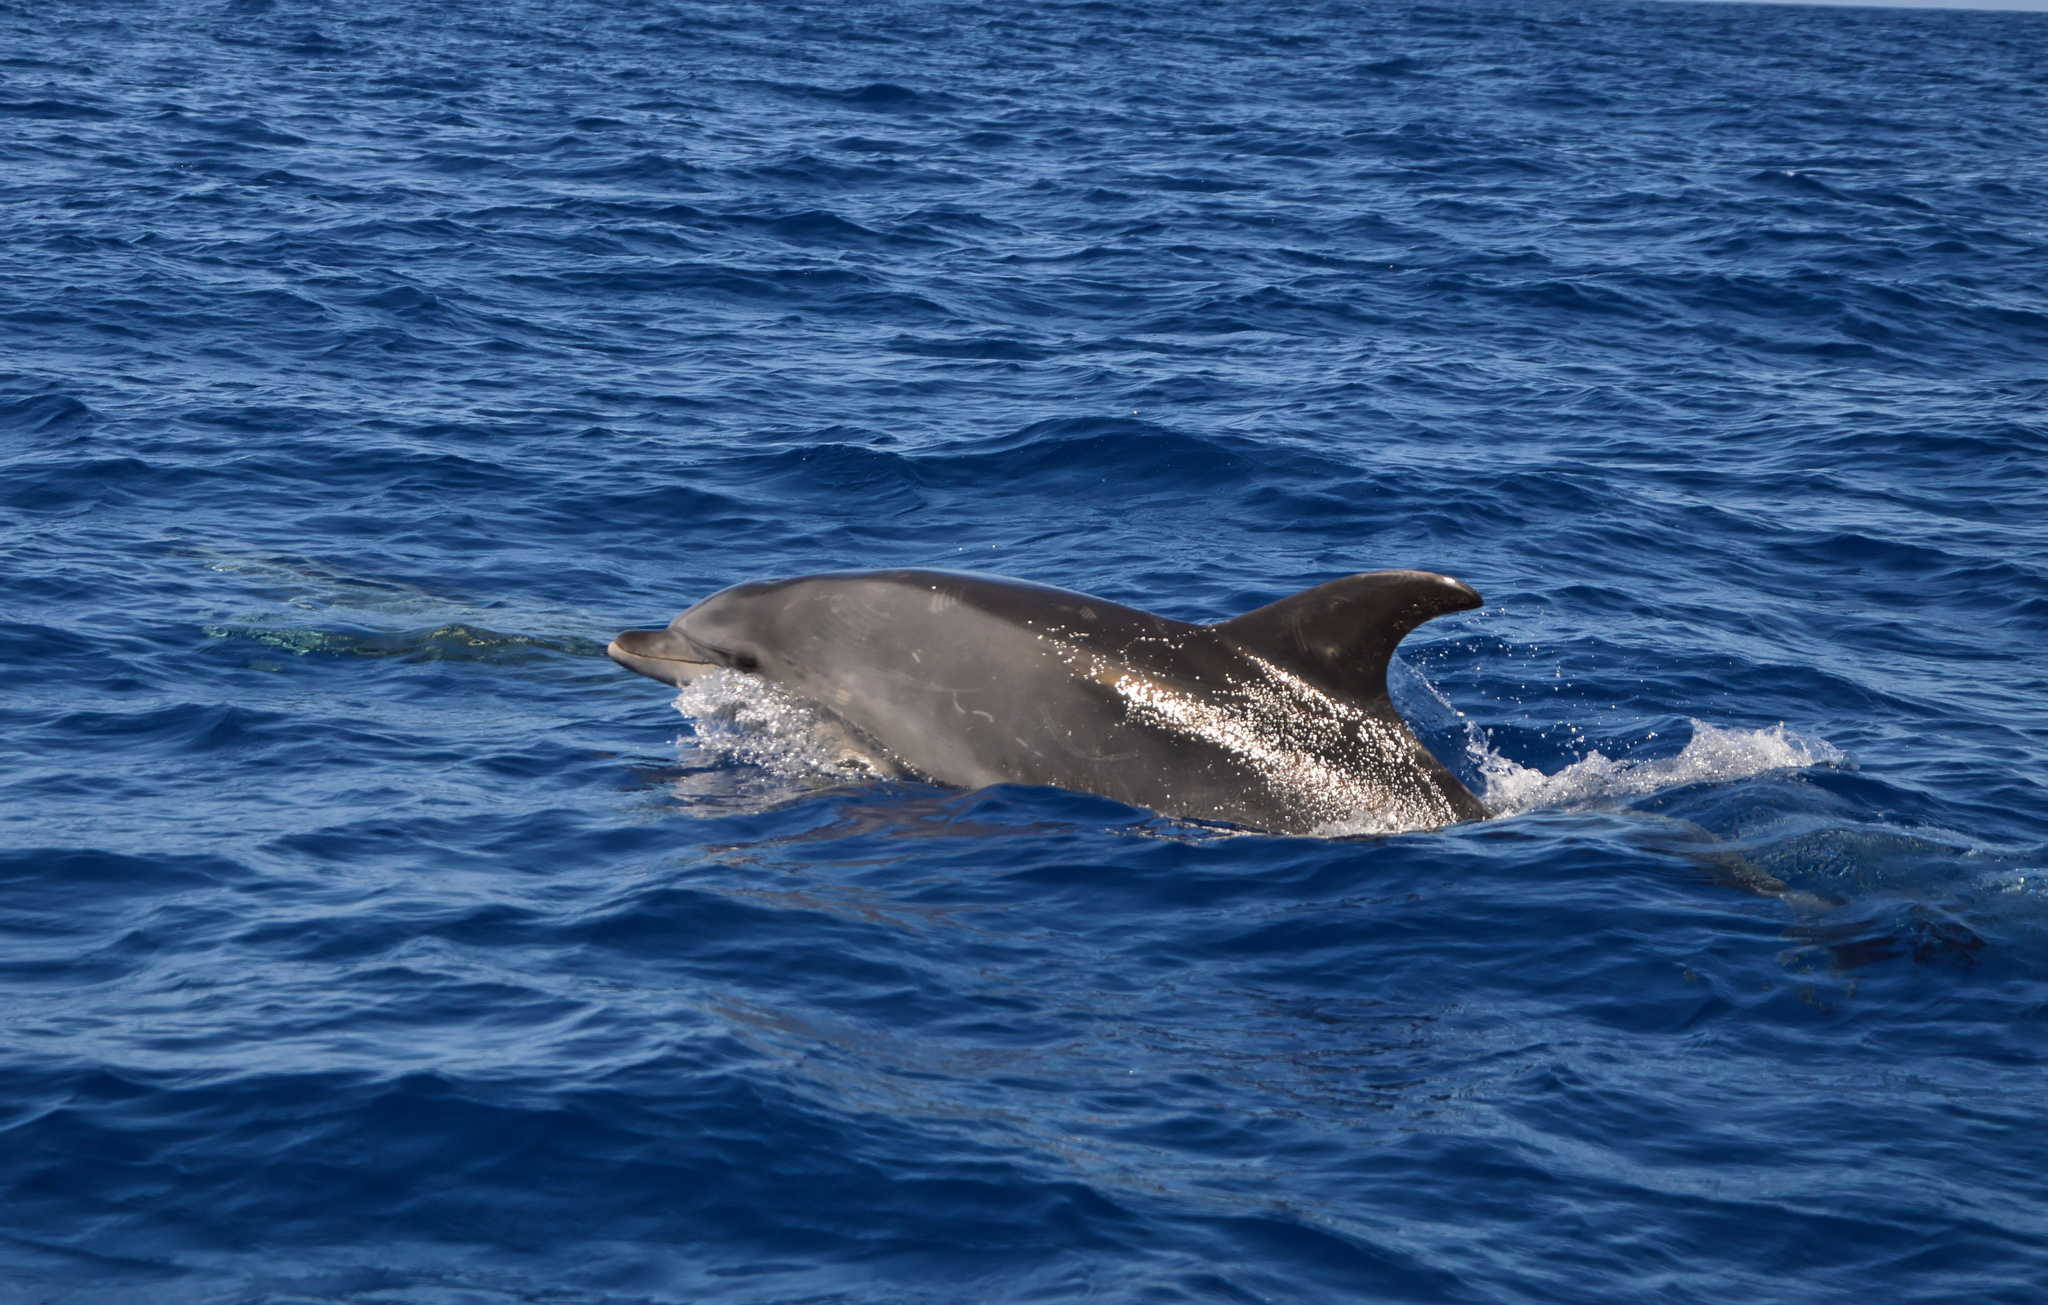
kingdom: Animalia
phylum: Chordata
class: Mammalia
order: Cetacea
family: Delphinidae
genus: Tursiops
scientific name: Tursiops truncatus
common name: Bottlenose dolphin
